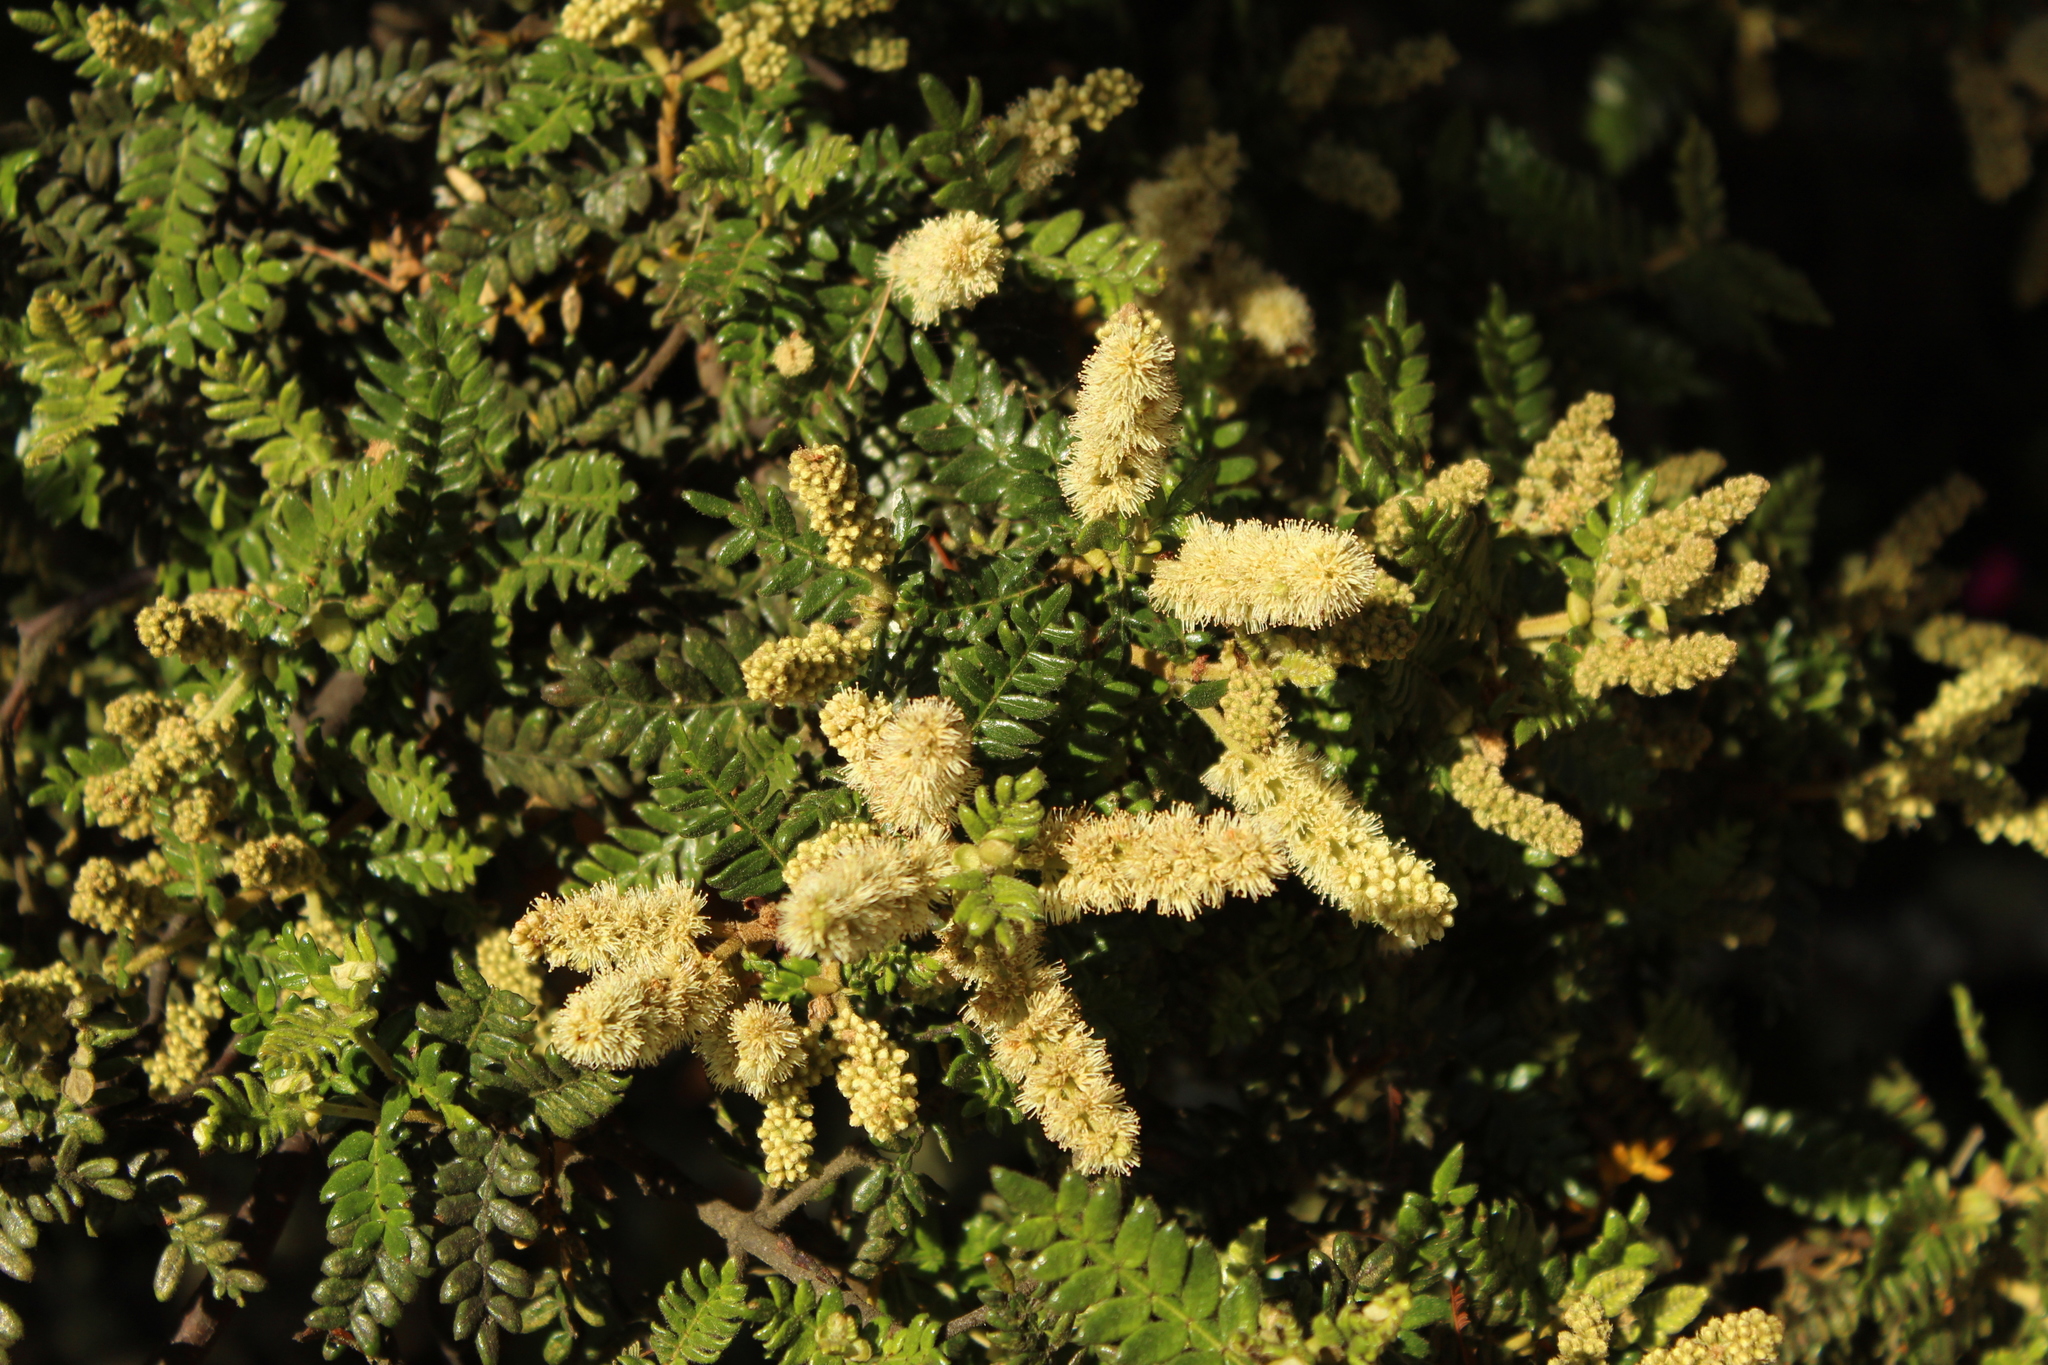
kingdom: Plantae
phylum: Tracheophyta
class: Magnoliopsida
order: Oxalidales
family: Cunoniaceae
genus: Weinmannia
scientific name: Weinmannia tomentosa
